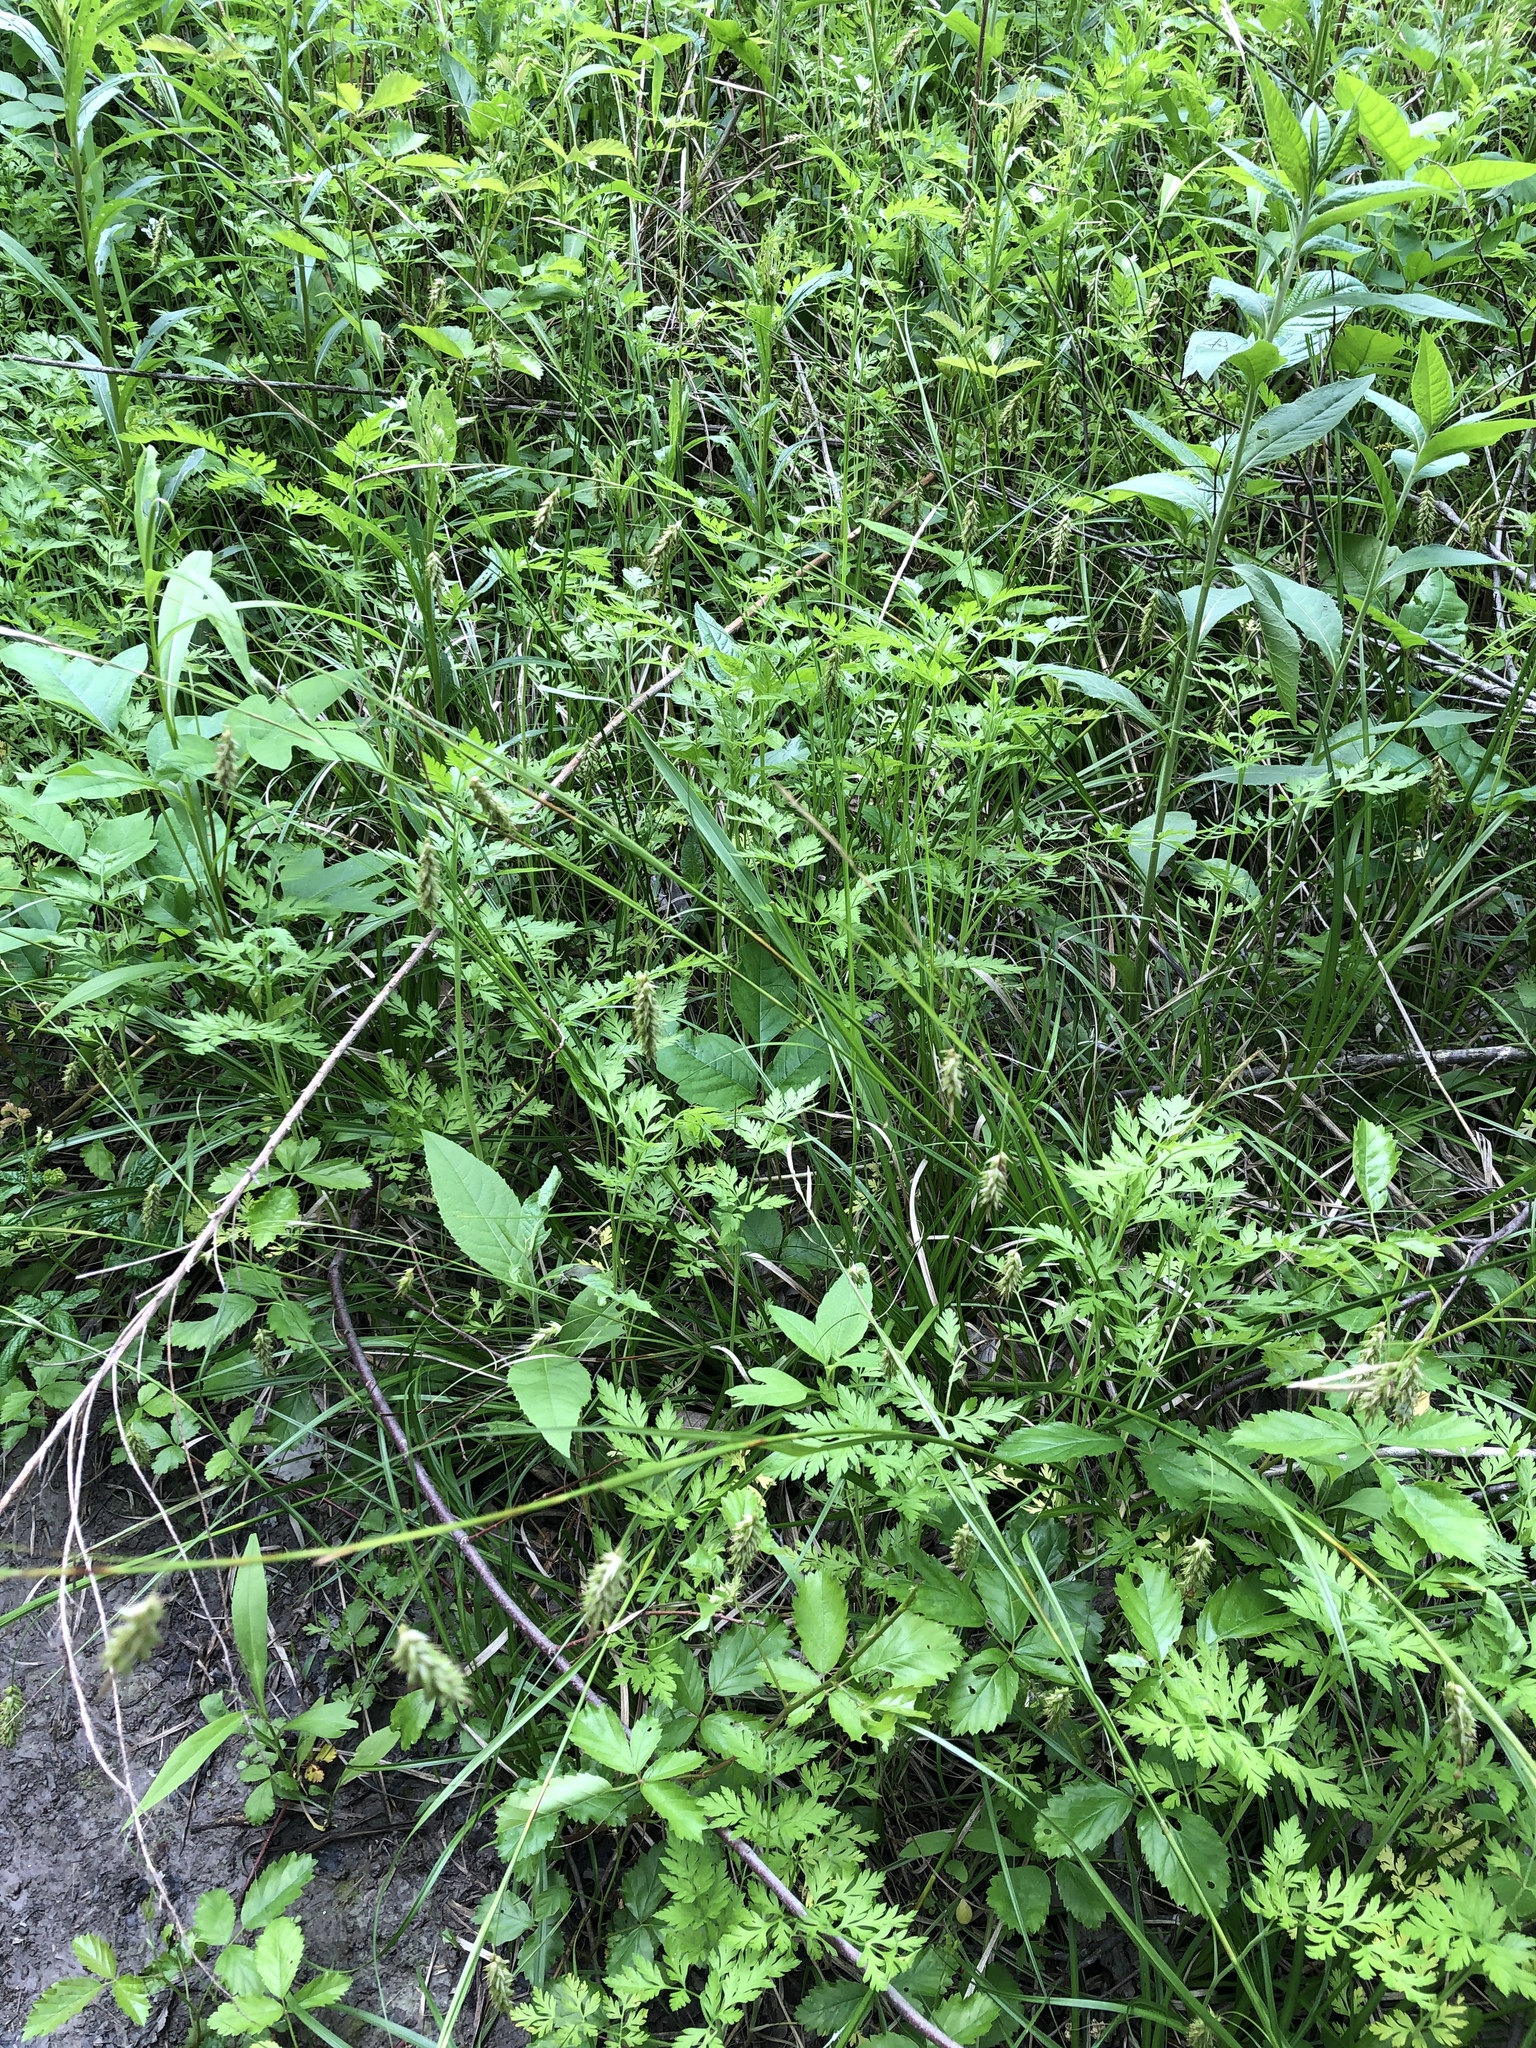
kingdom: Plantae
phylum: Tracheophyta
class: Liliopsida
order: Poales
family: Cyperaceae
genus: Carex
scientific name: Carex cherokeensis
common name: Cherokee sedge
